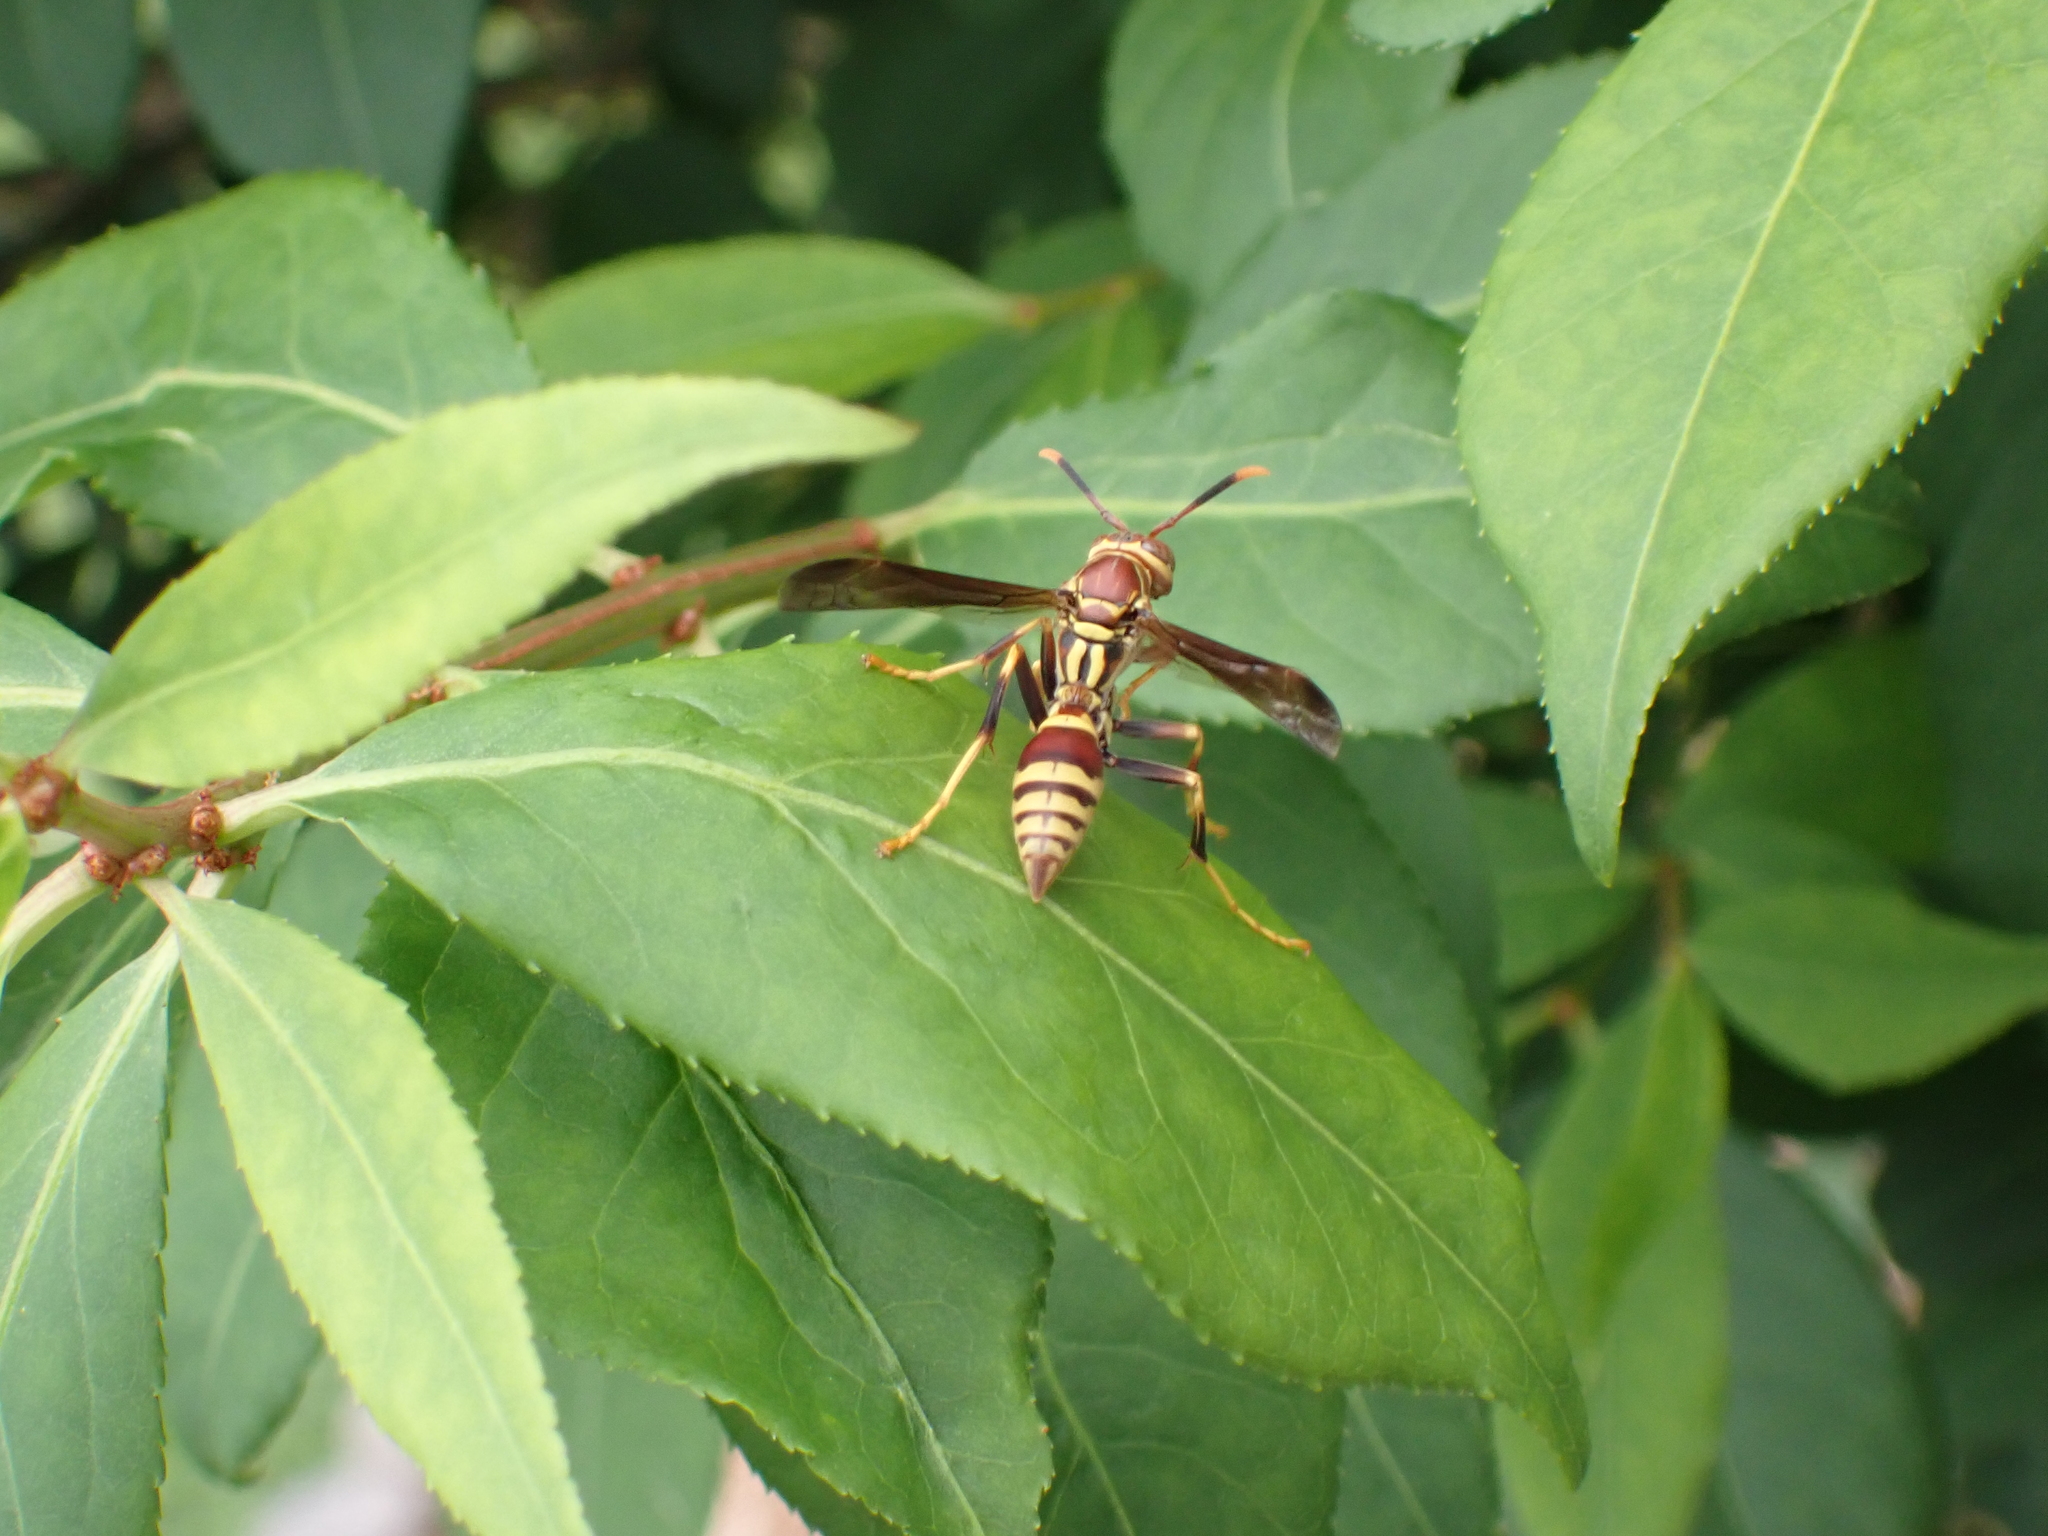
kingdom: Animalia
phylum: Arthropoda
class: Insecta
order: Hymenoptera
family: Eumenidae
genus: Polistes
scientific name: Polistes exclamans
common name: Paper wasp
